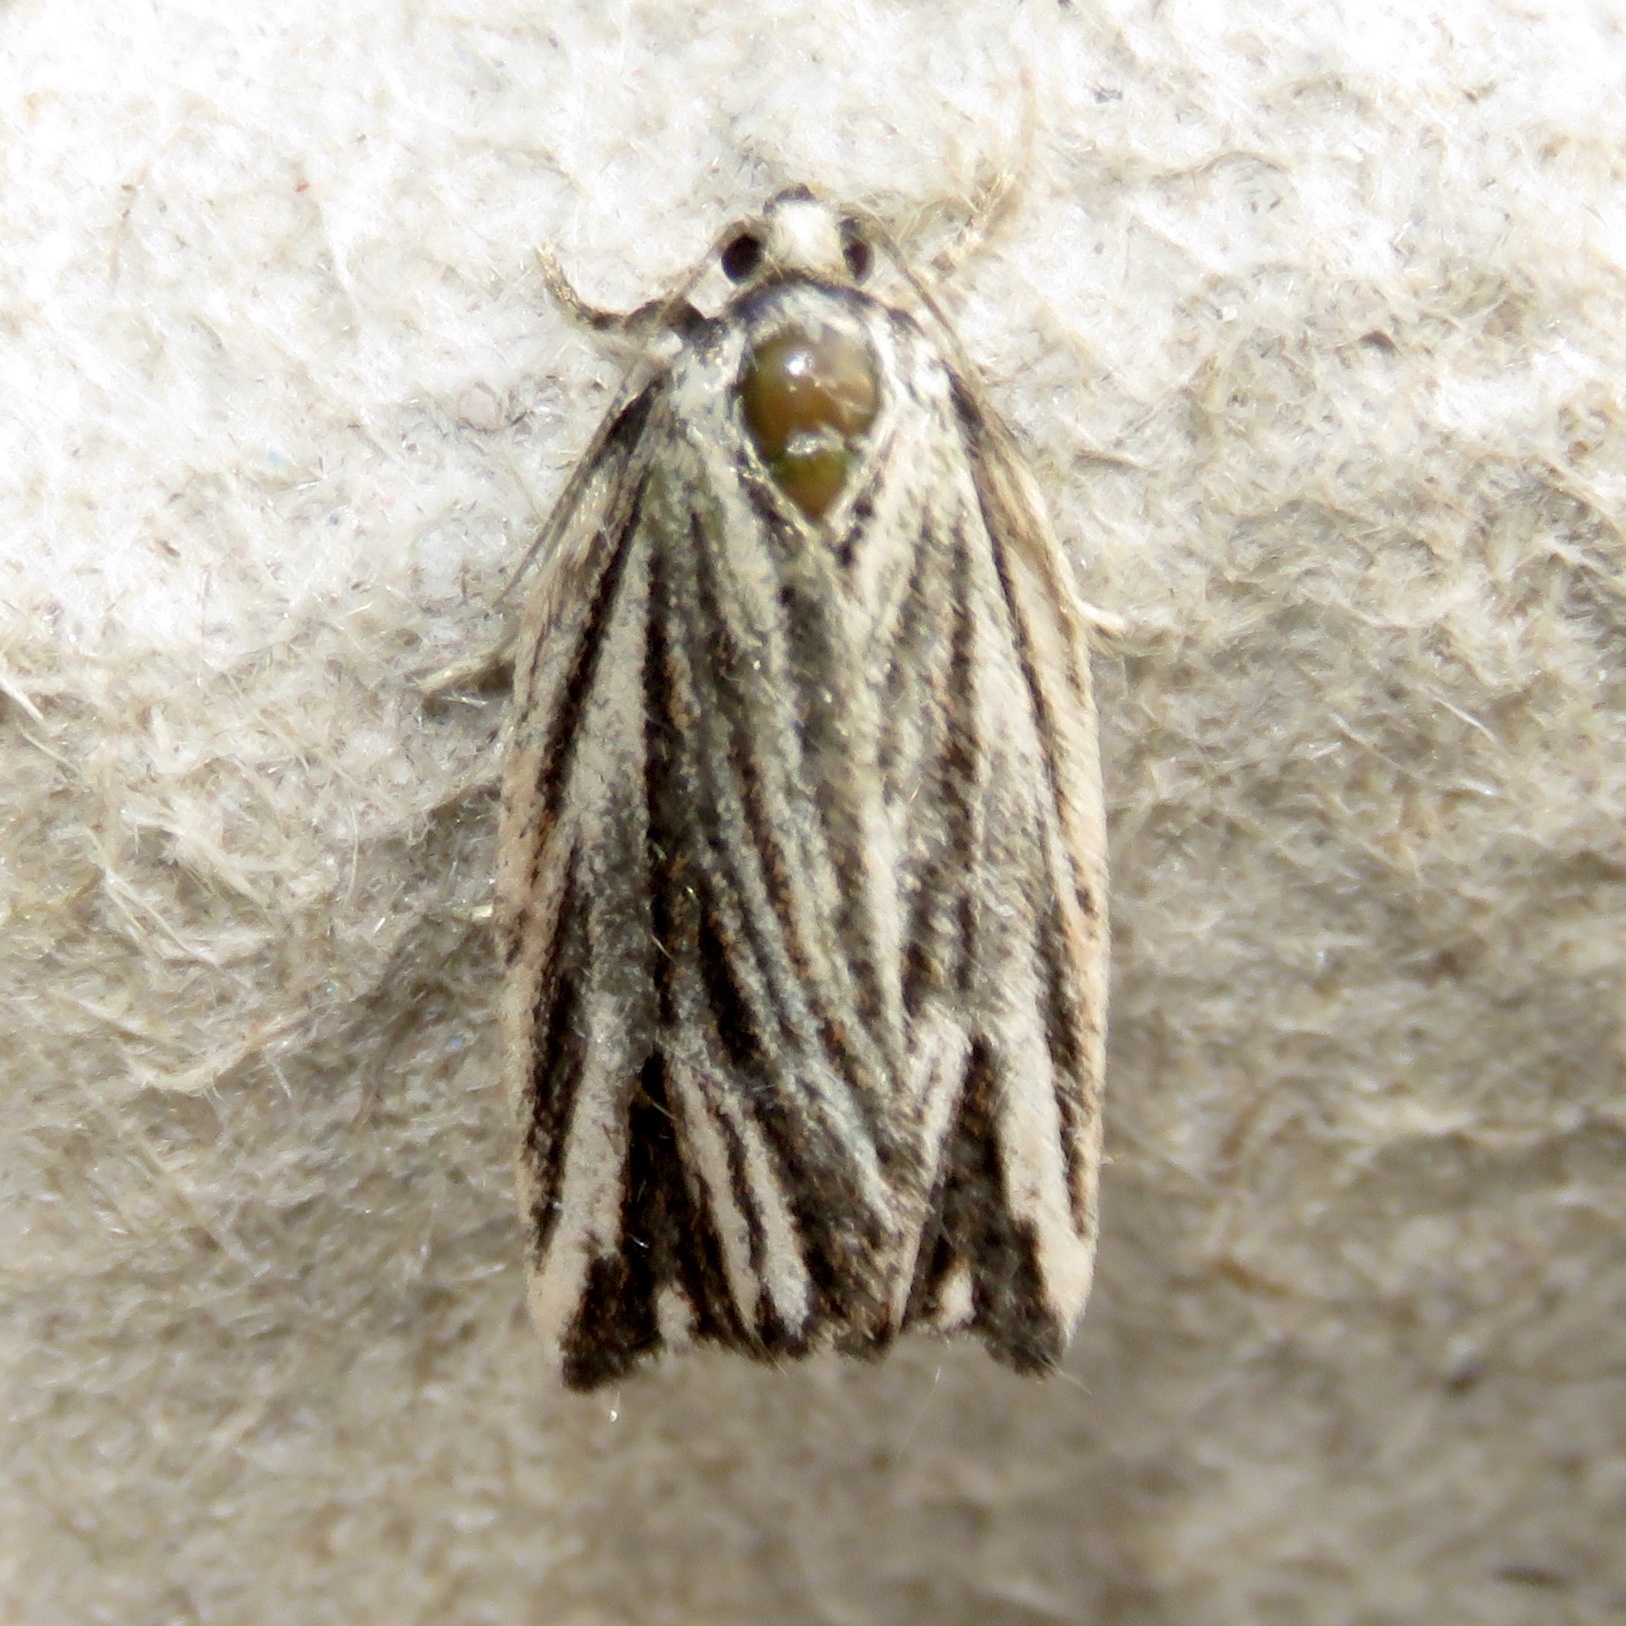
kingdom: Animalia
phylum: Arthropoda
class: Insecta
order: Lepidoptera
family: Tortricidae
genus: Archips
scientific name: Archips strianus
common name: Striated tortrix moth
